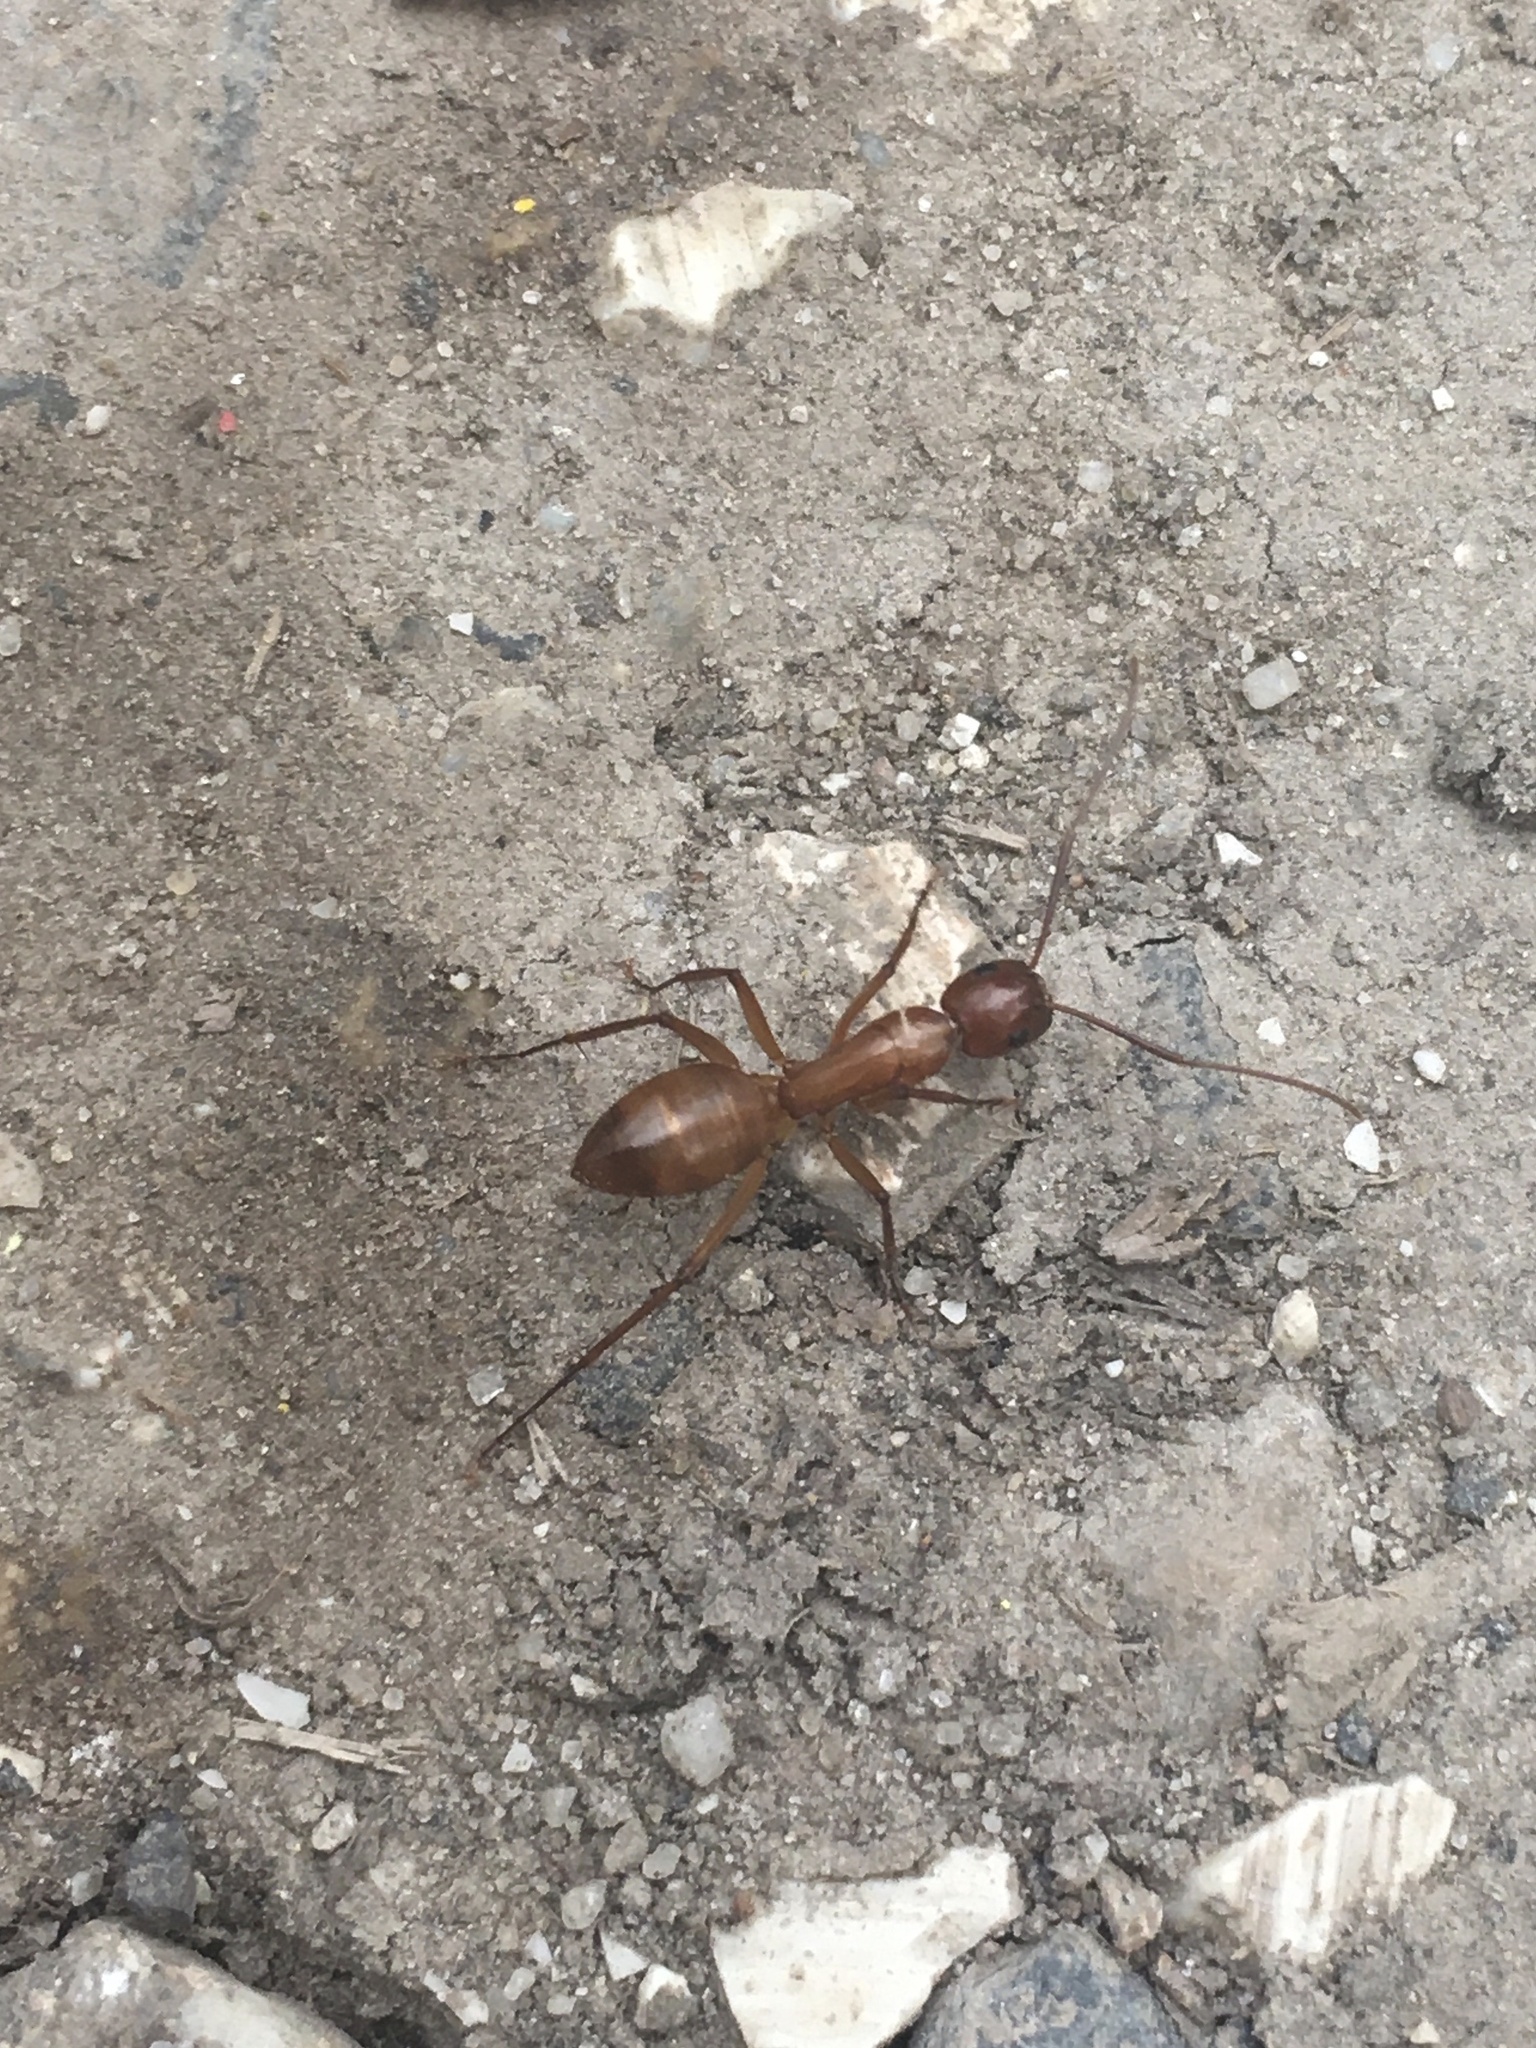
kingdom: Animalia
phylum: Arthropoda
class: Insecta
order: Hymenoptera
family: Formicidae
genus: Camponotus
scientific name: Camponotus castaneus
